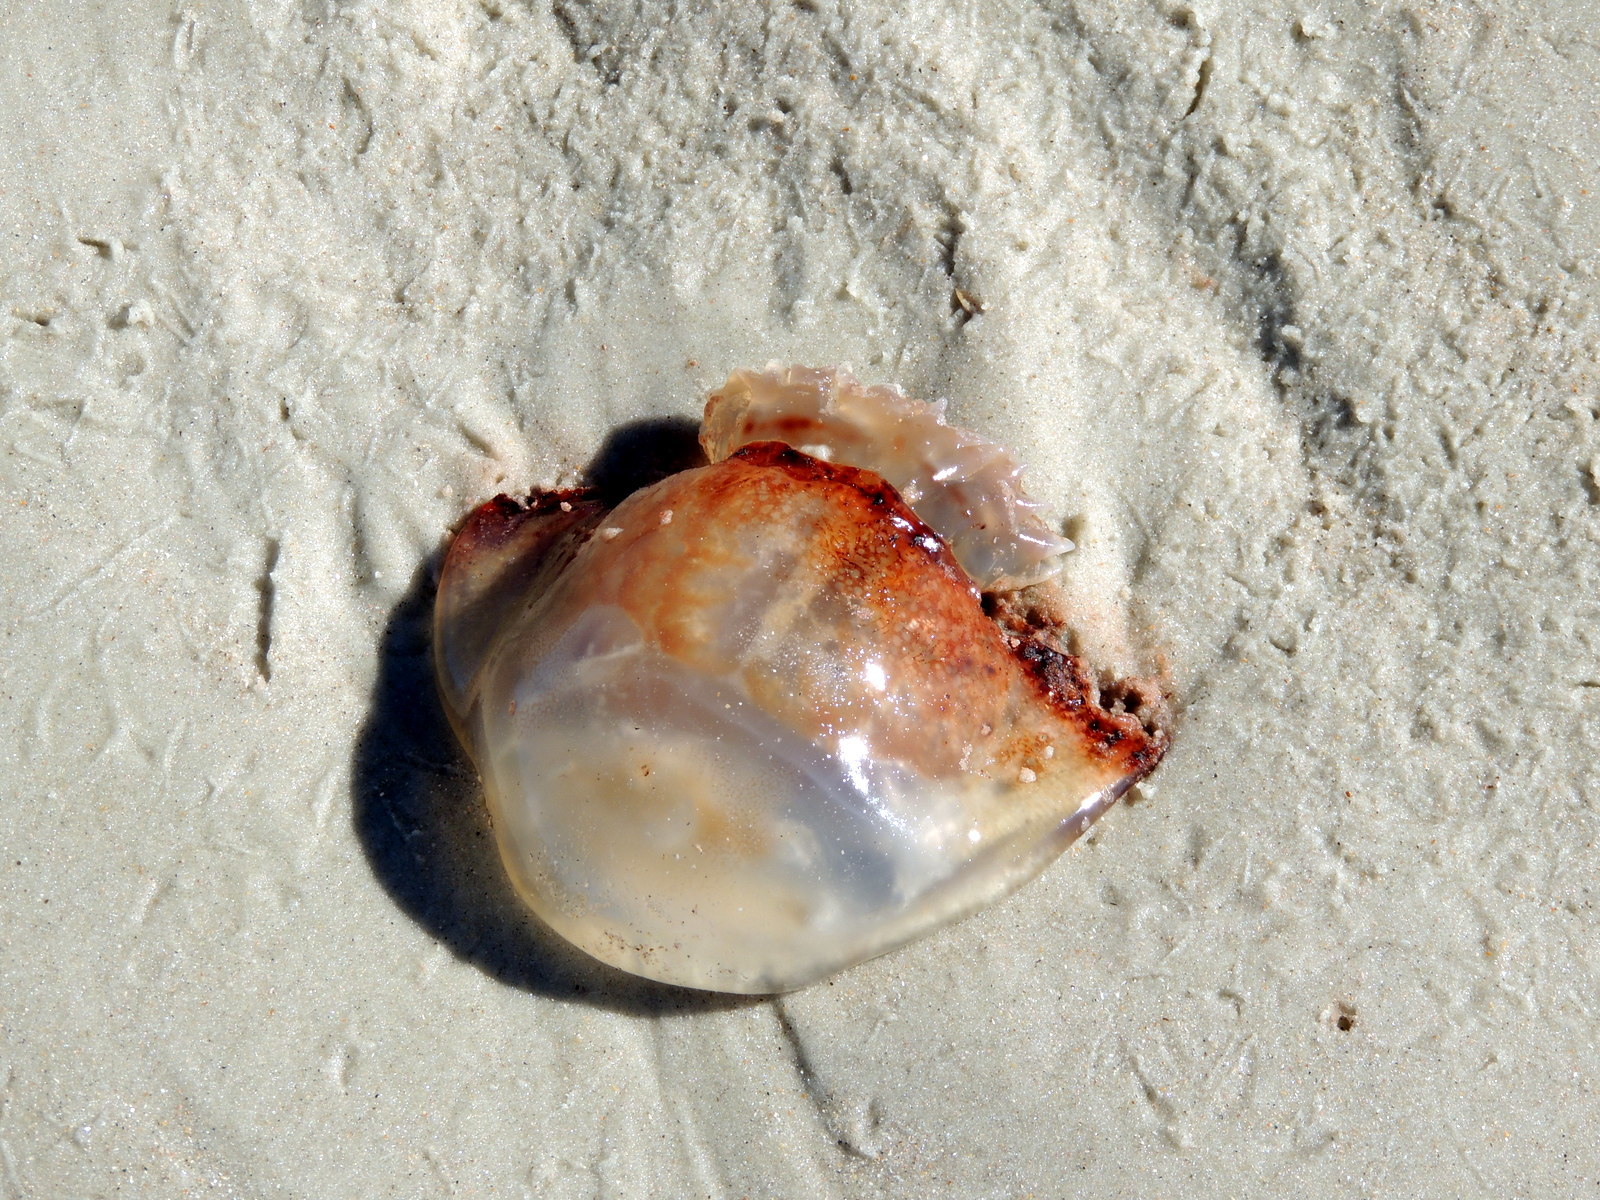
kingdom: Animalia
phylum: Cnidaria
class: Scyphozoa
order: Rhizostomeae
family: Stomolophidae
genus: Stomolophus
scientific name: Stomolophus meleagris
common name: Cabbagehead
